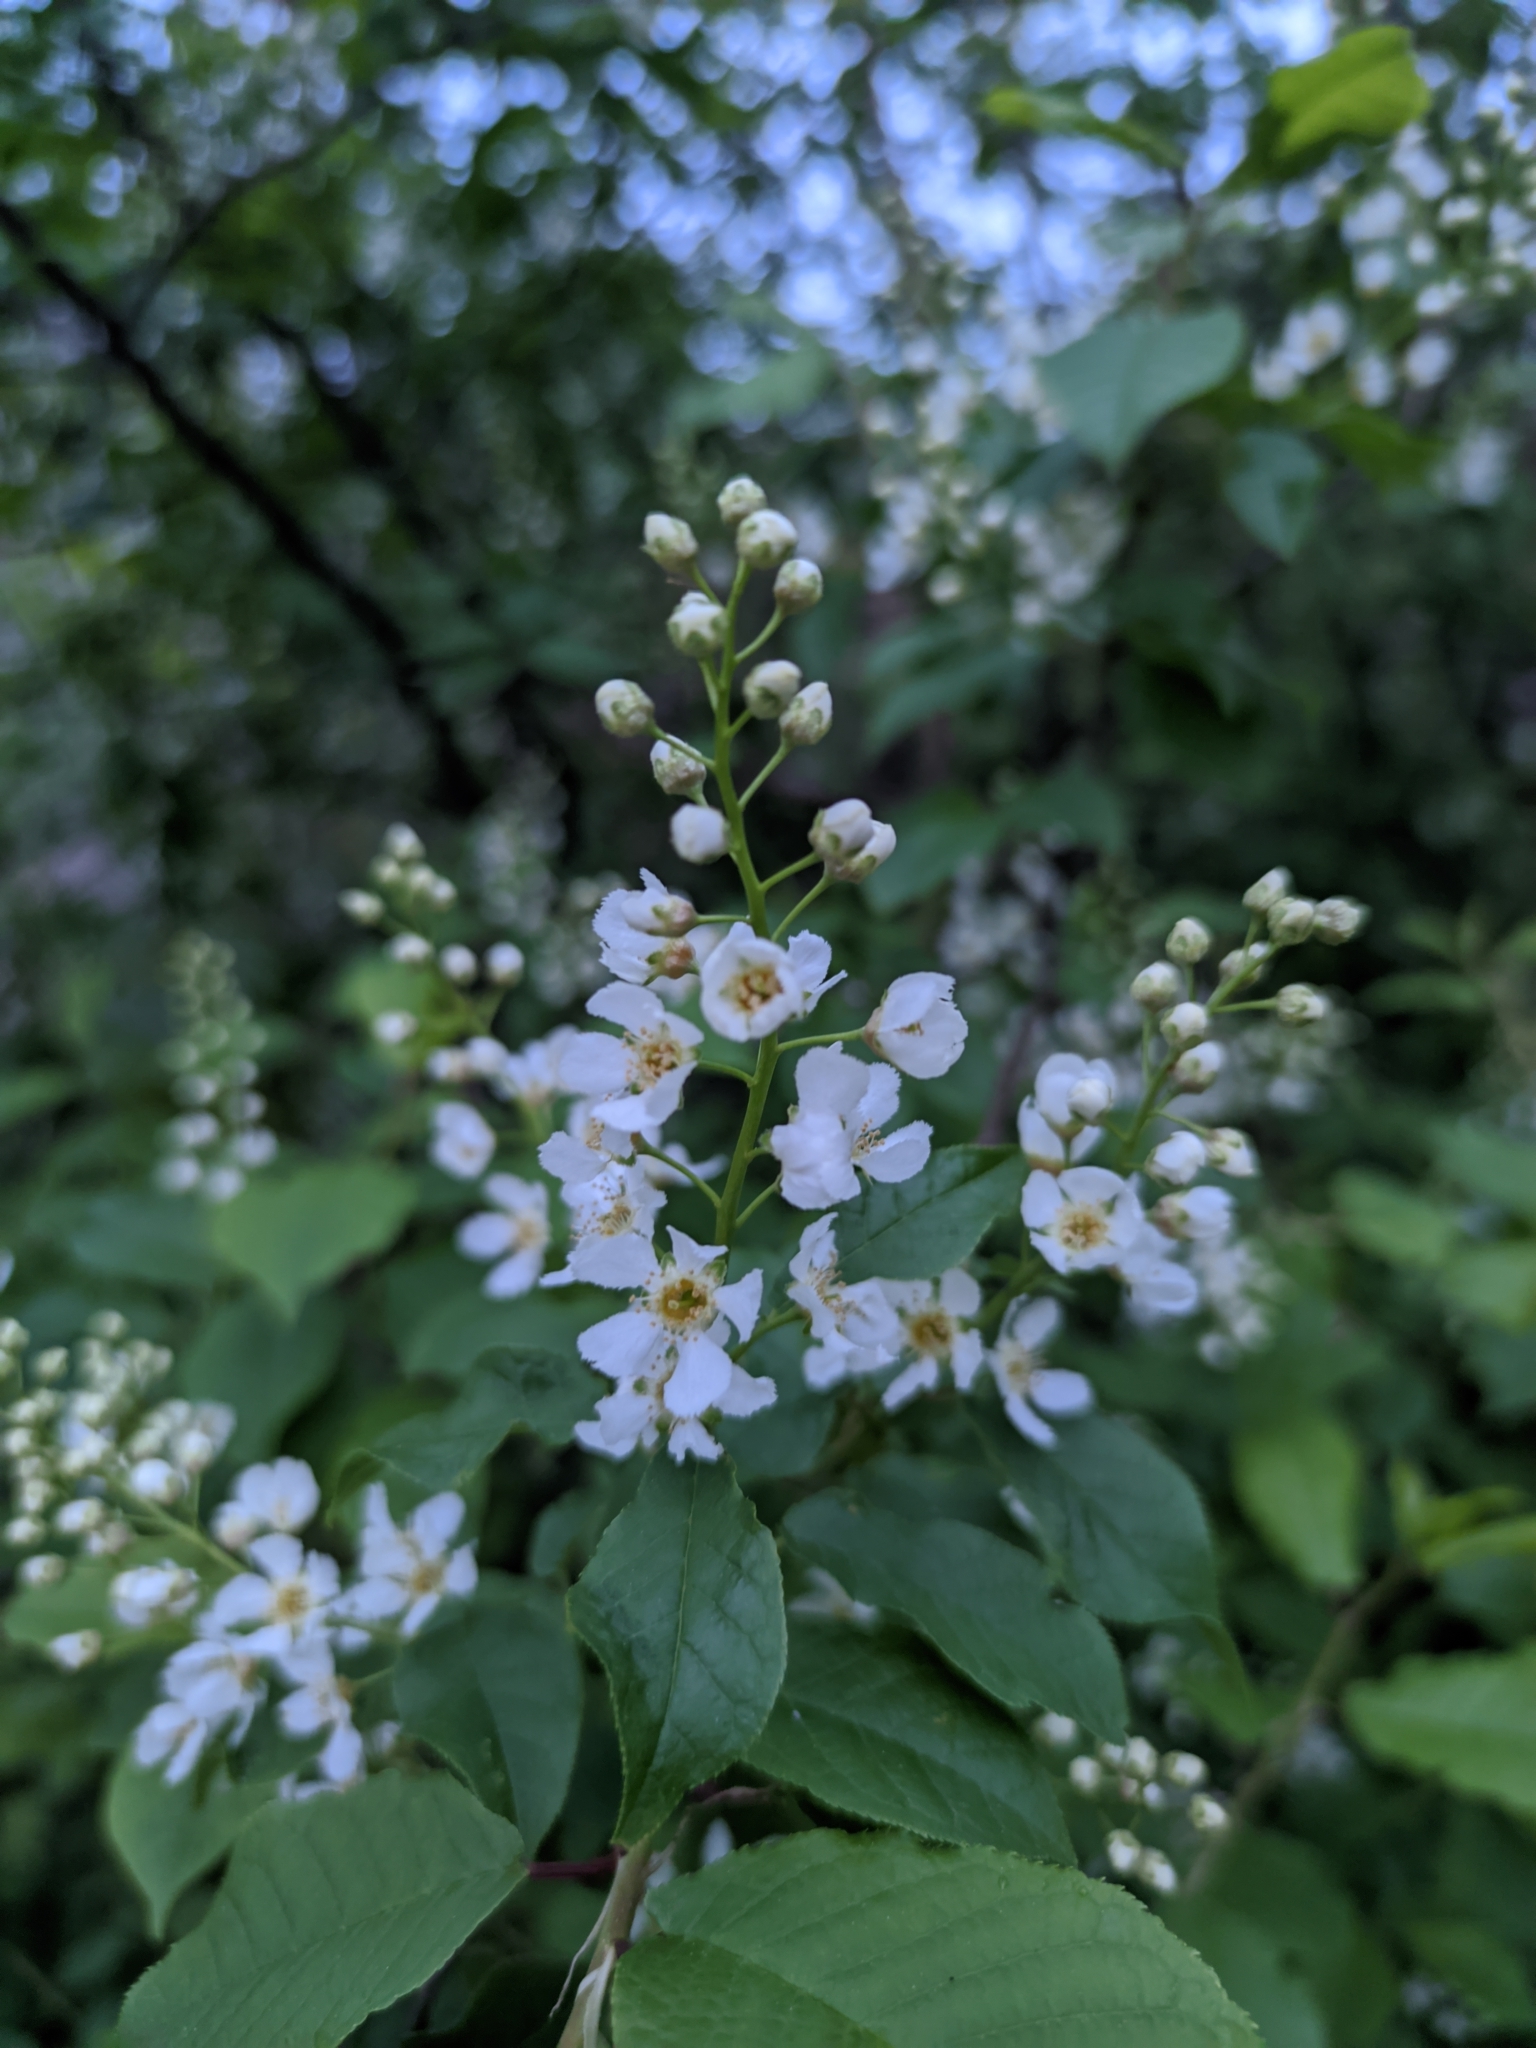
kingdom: Plantae
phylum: Tracheophyta
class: Magnoliopsida
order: Rosales
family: Rosaceae
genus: Prunus
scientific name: Prunus padus
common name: Bird cherry
